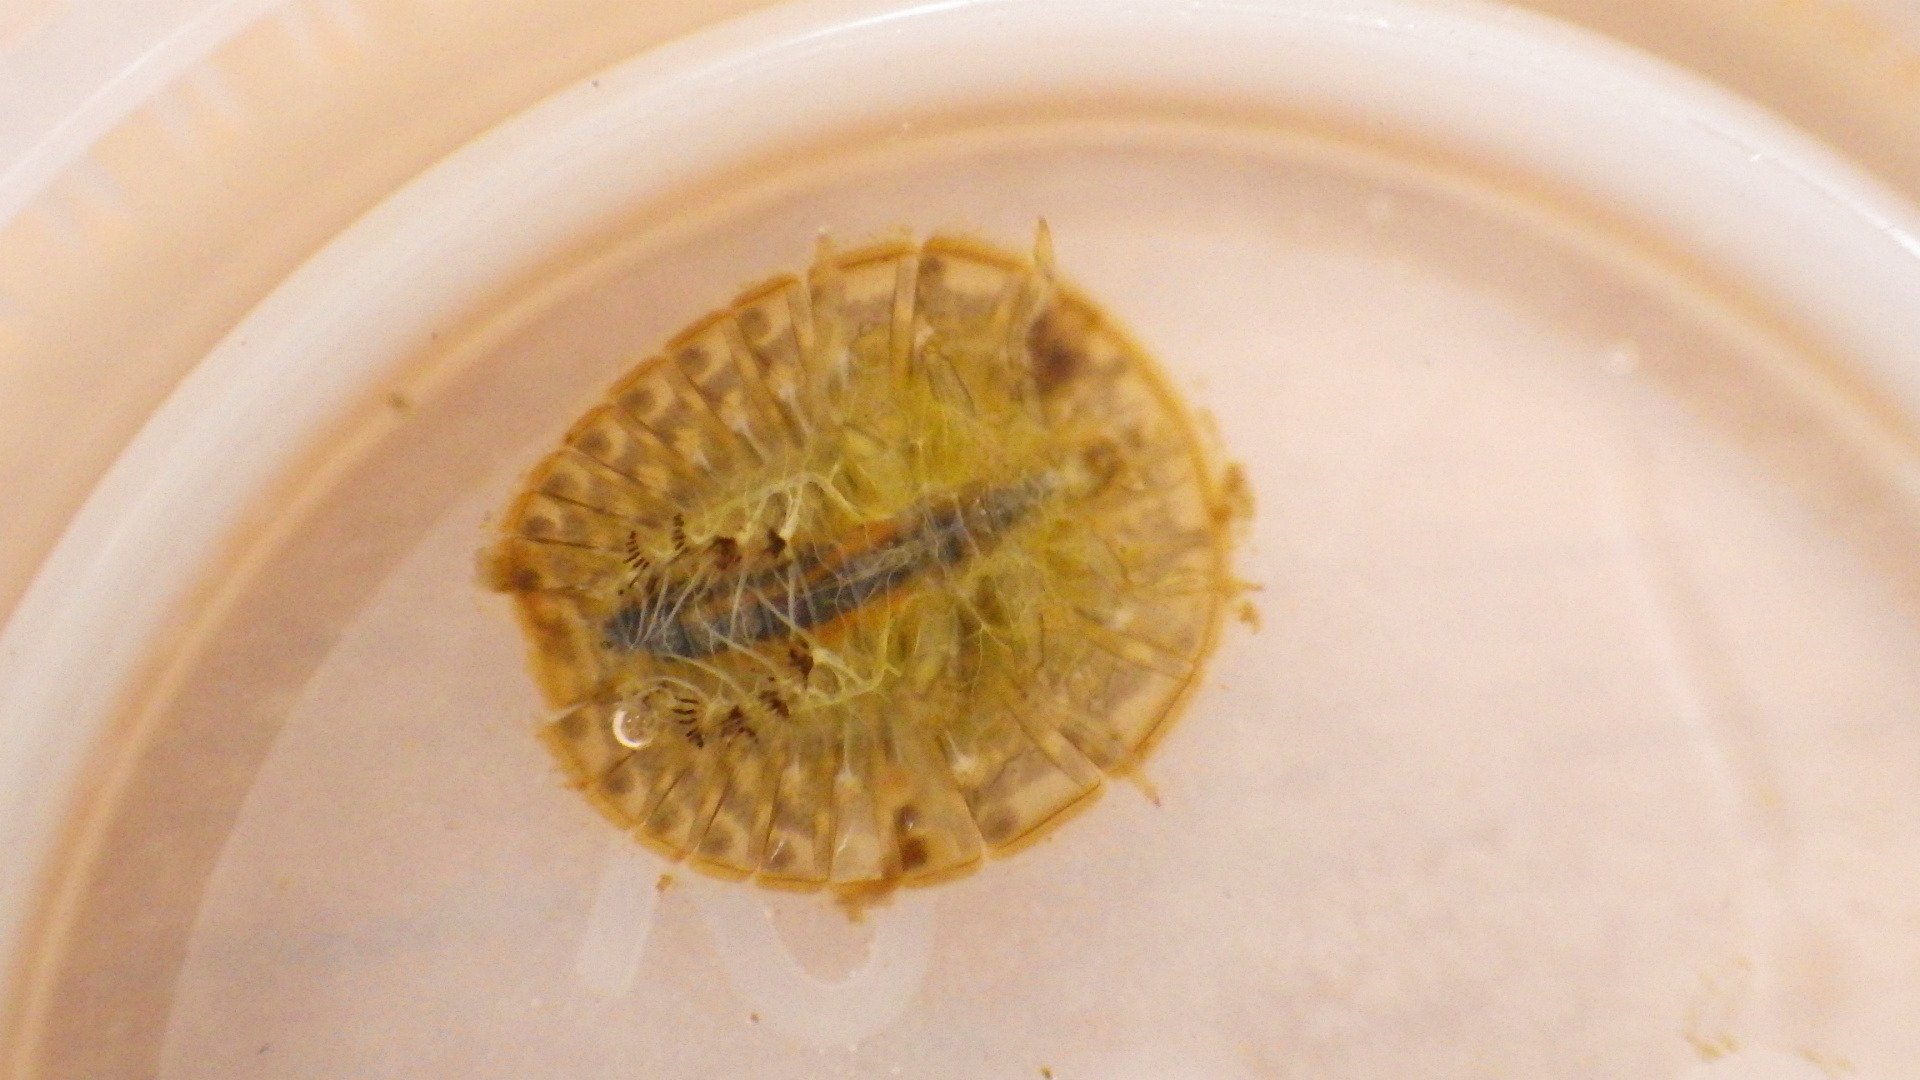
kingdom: Animalia
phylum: Arthropoda
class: Insecta
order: Coleoptera
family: Psephenidae
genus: Psephenus
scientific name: Psephenus herricki
